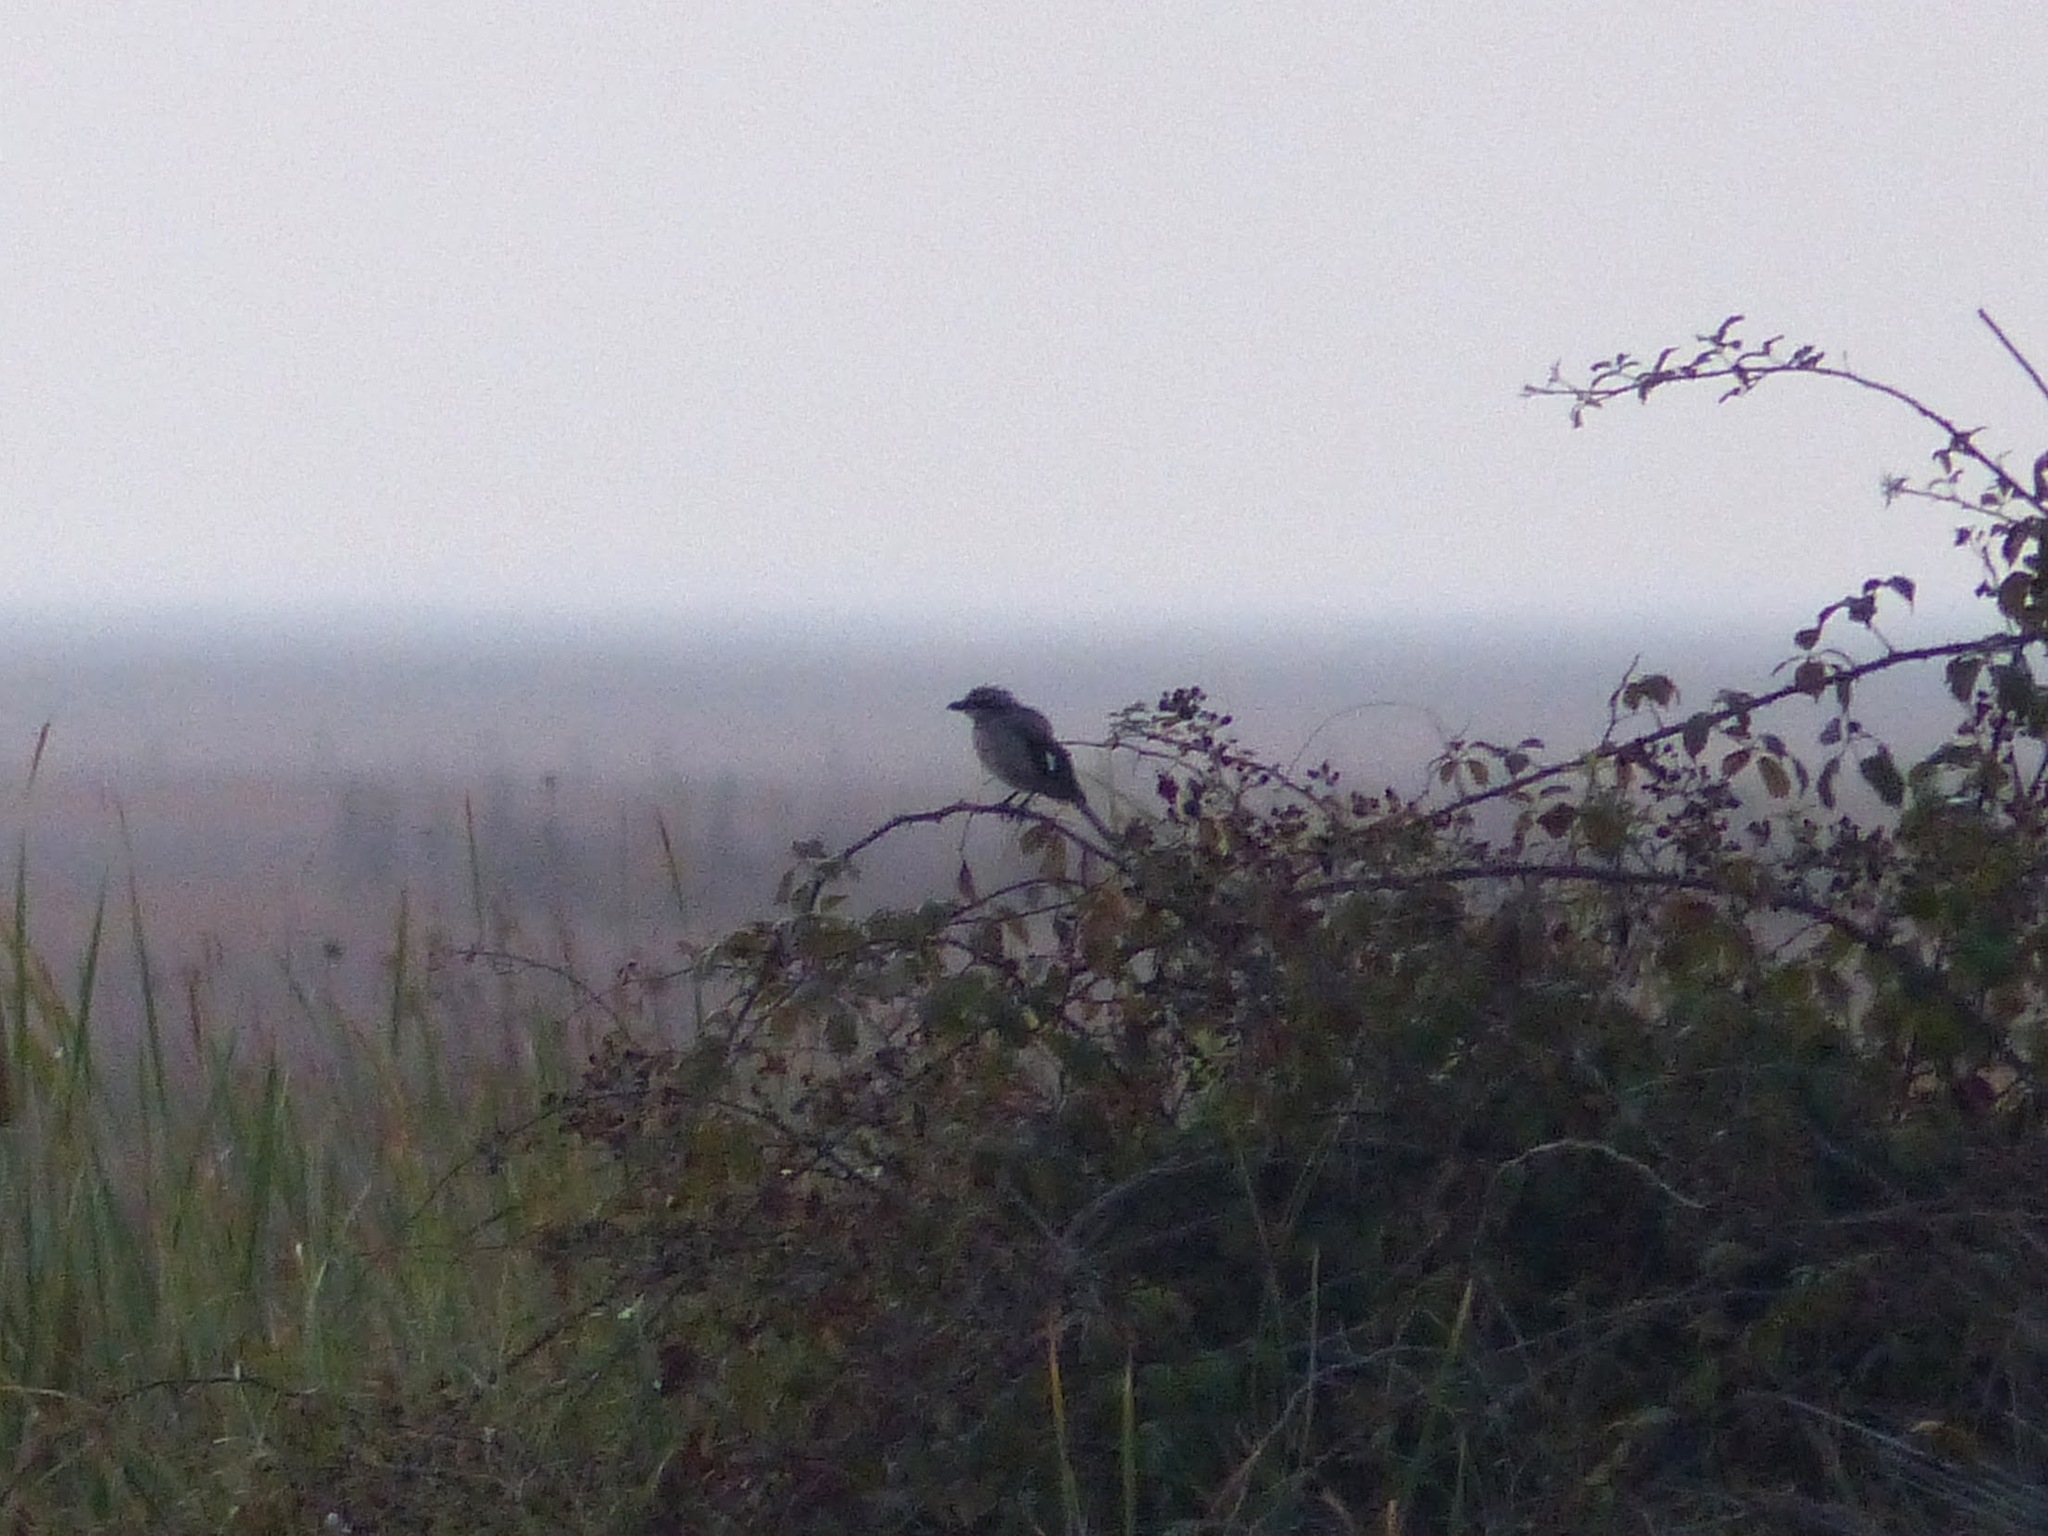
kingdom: Animalia
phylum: Chordata
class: Aves
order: Passeriformes
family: Laniidae
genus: Lanius
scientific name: Lanius meridionalis
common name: Iberian grey shrike
